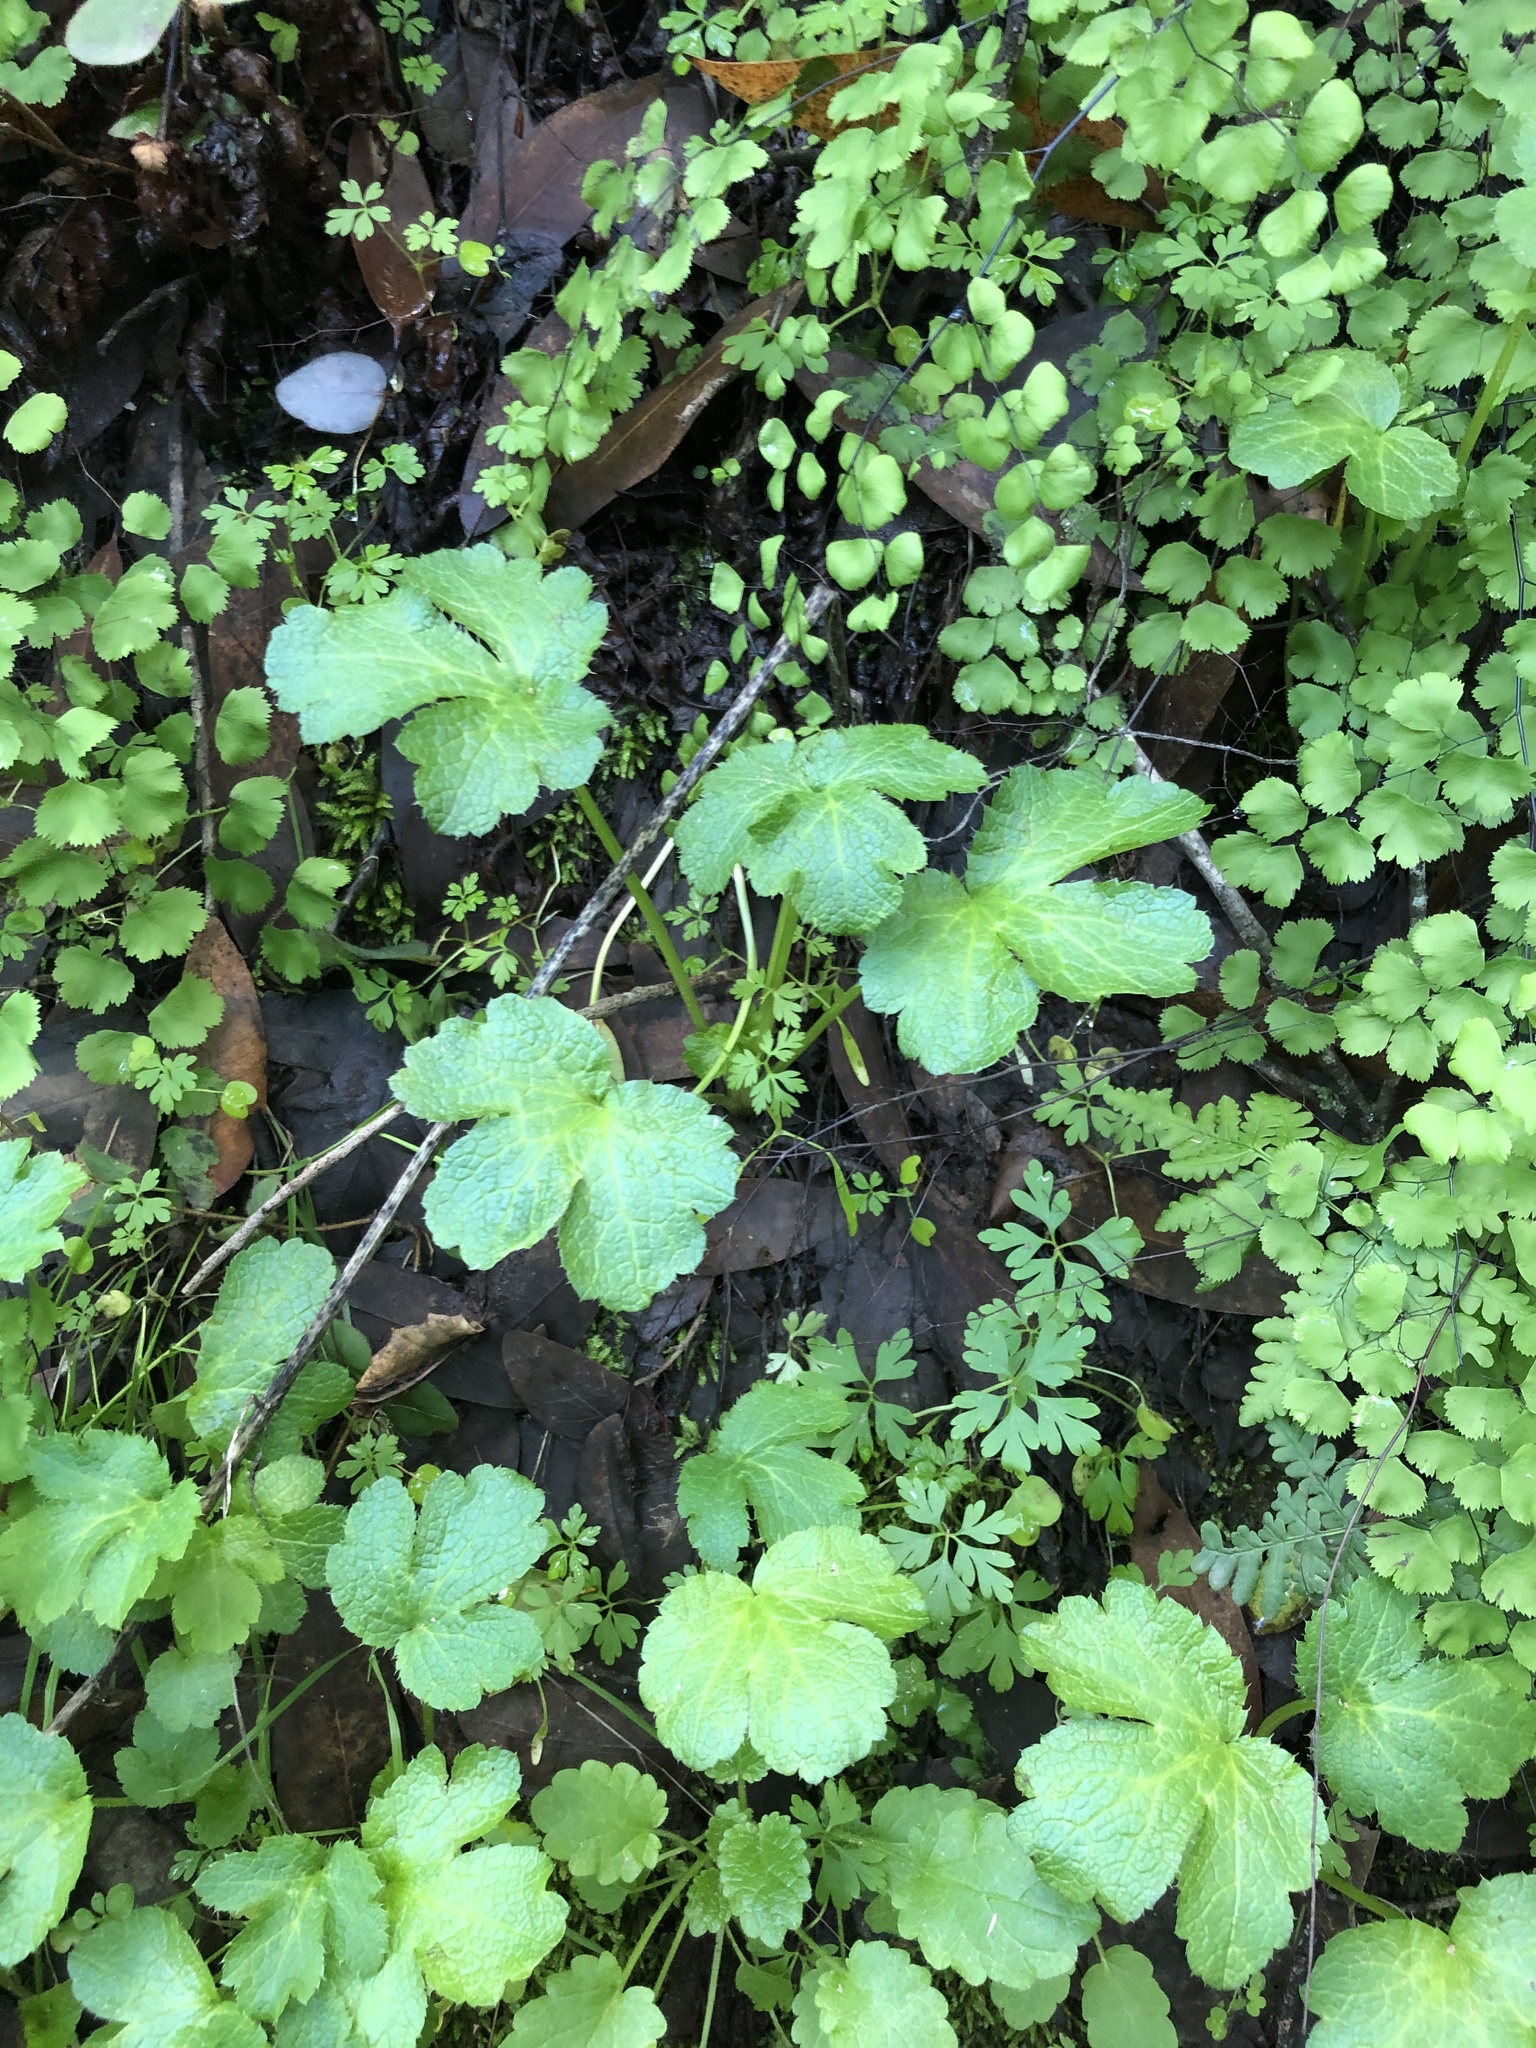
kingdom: Plantae
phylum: Tracheophyta
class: Magnoliopsida
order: Apiales
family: Apiaceae
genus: Sanicula
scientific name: Sanicula crassicaulis
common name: Western snakeroot
